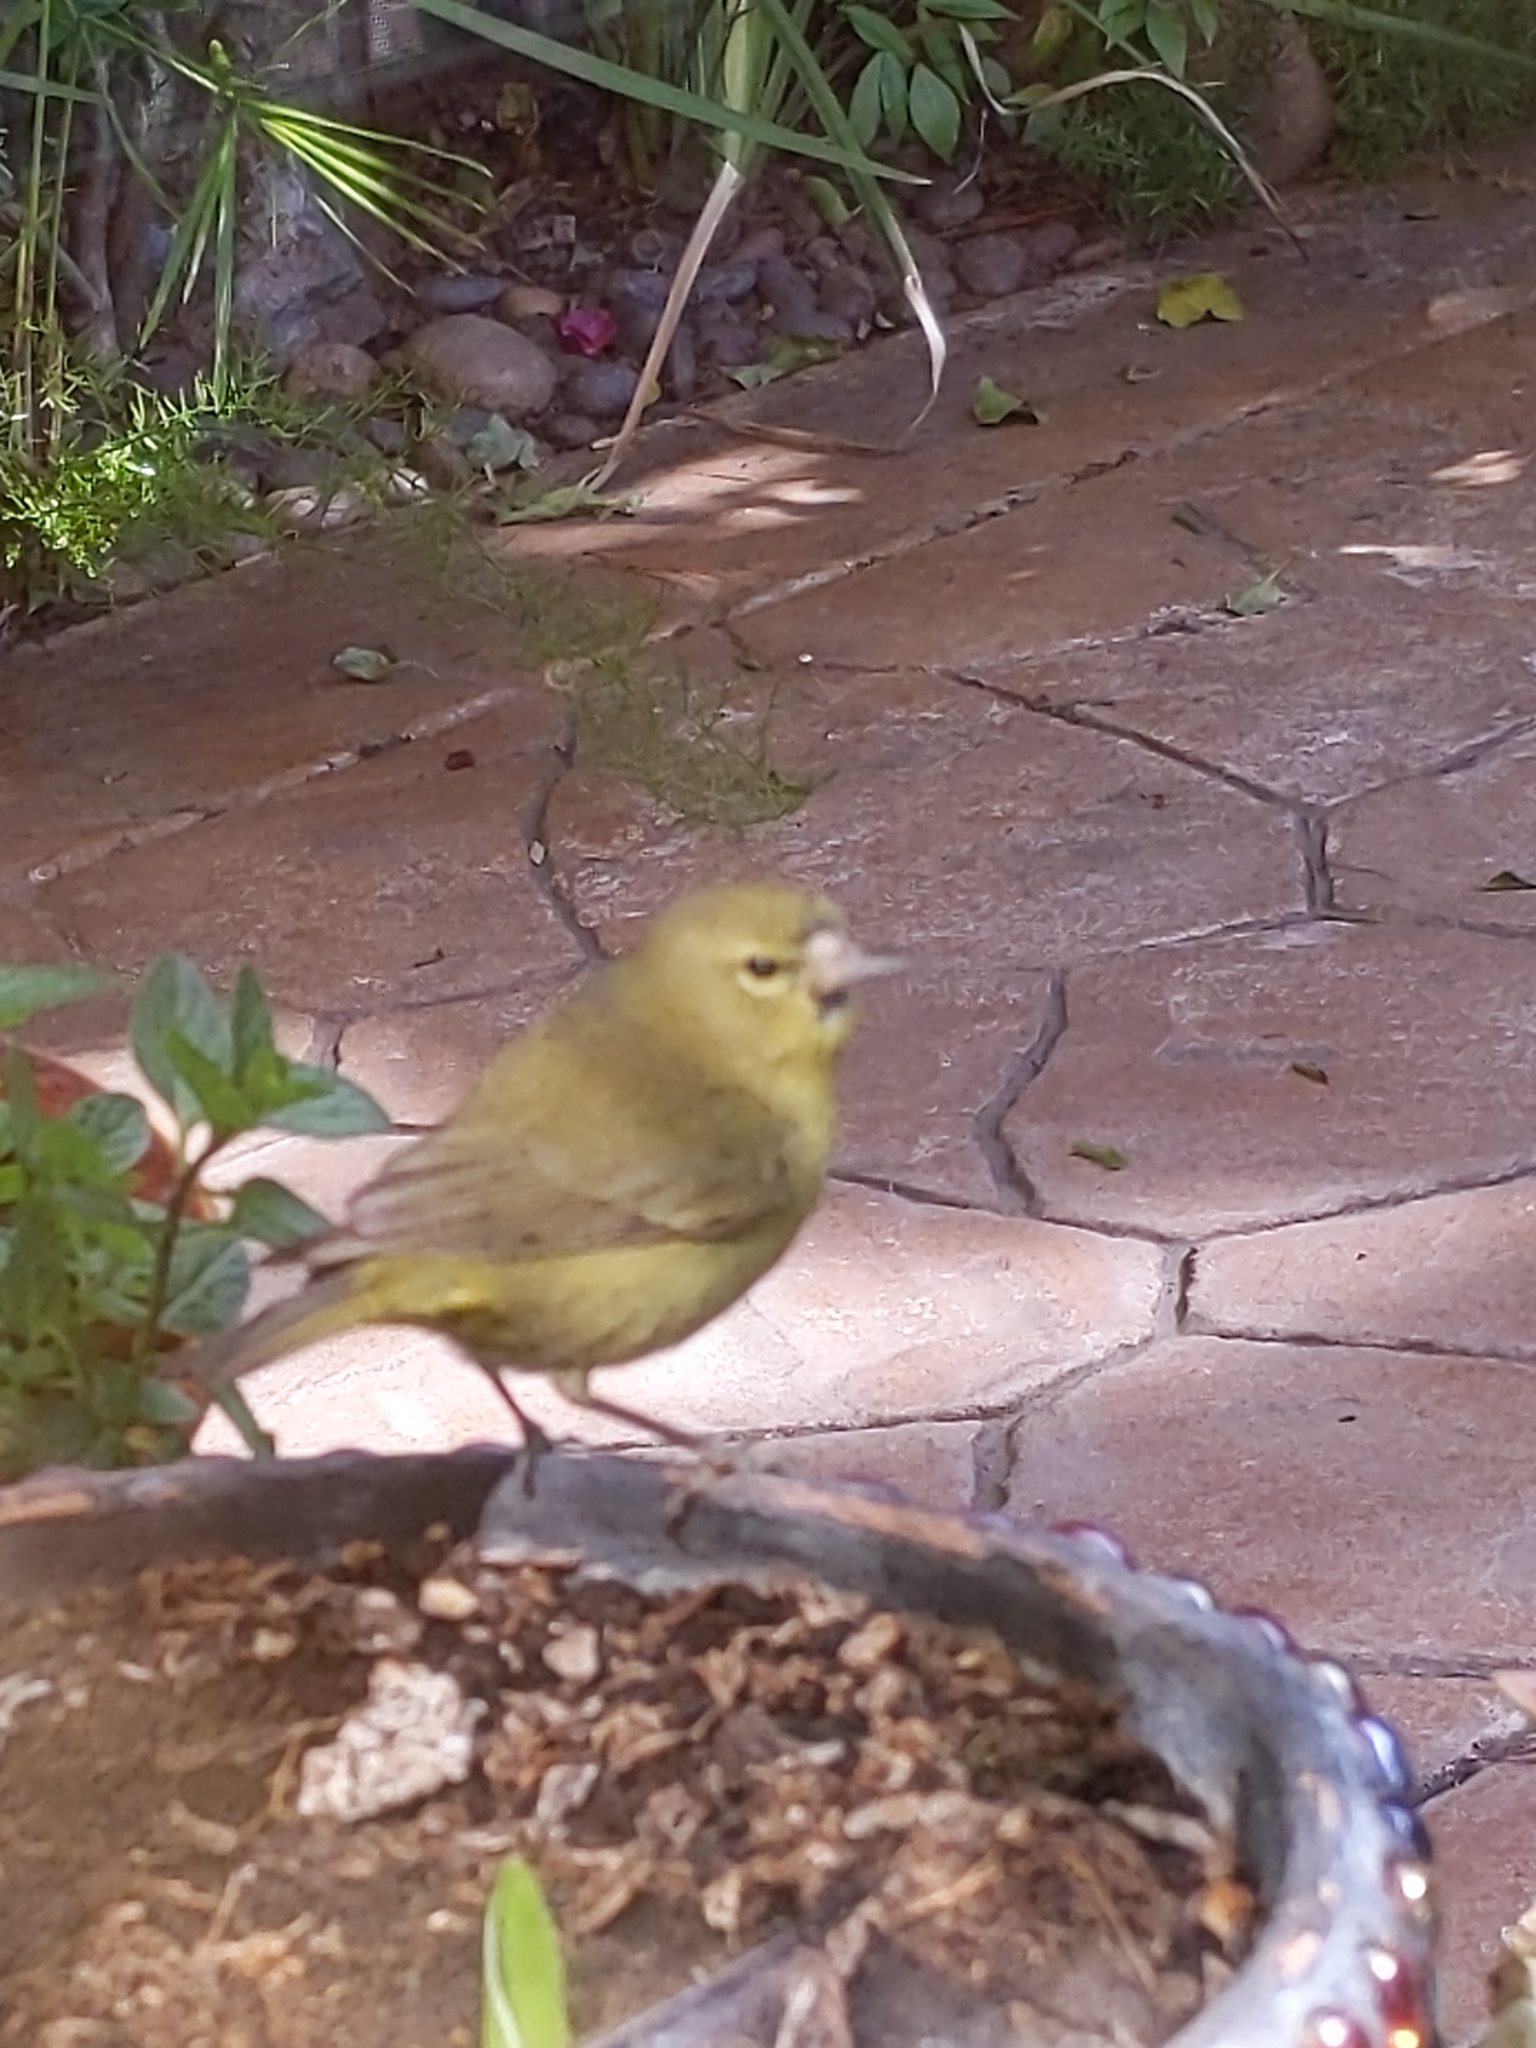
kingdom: Animalia
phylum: Chordata
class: Aves
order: Passeriformes
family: Parulidae
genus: Leiothlypis
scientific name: Leiothlypis celata
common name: Orange-crowned warbler
